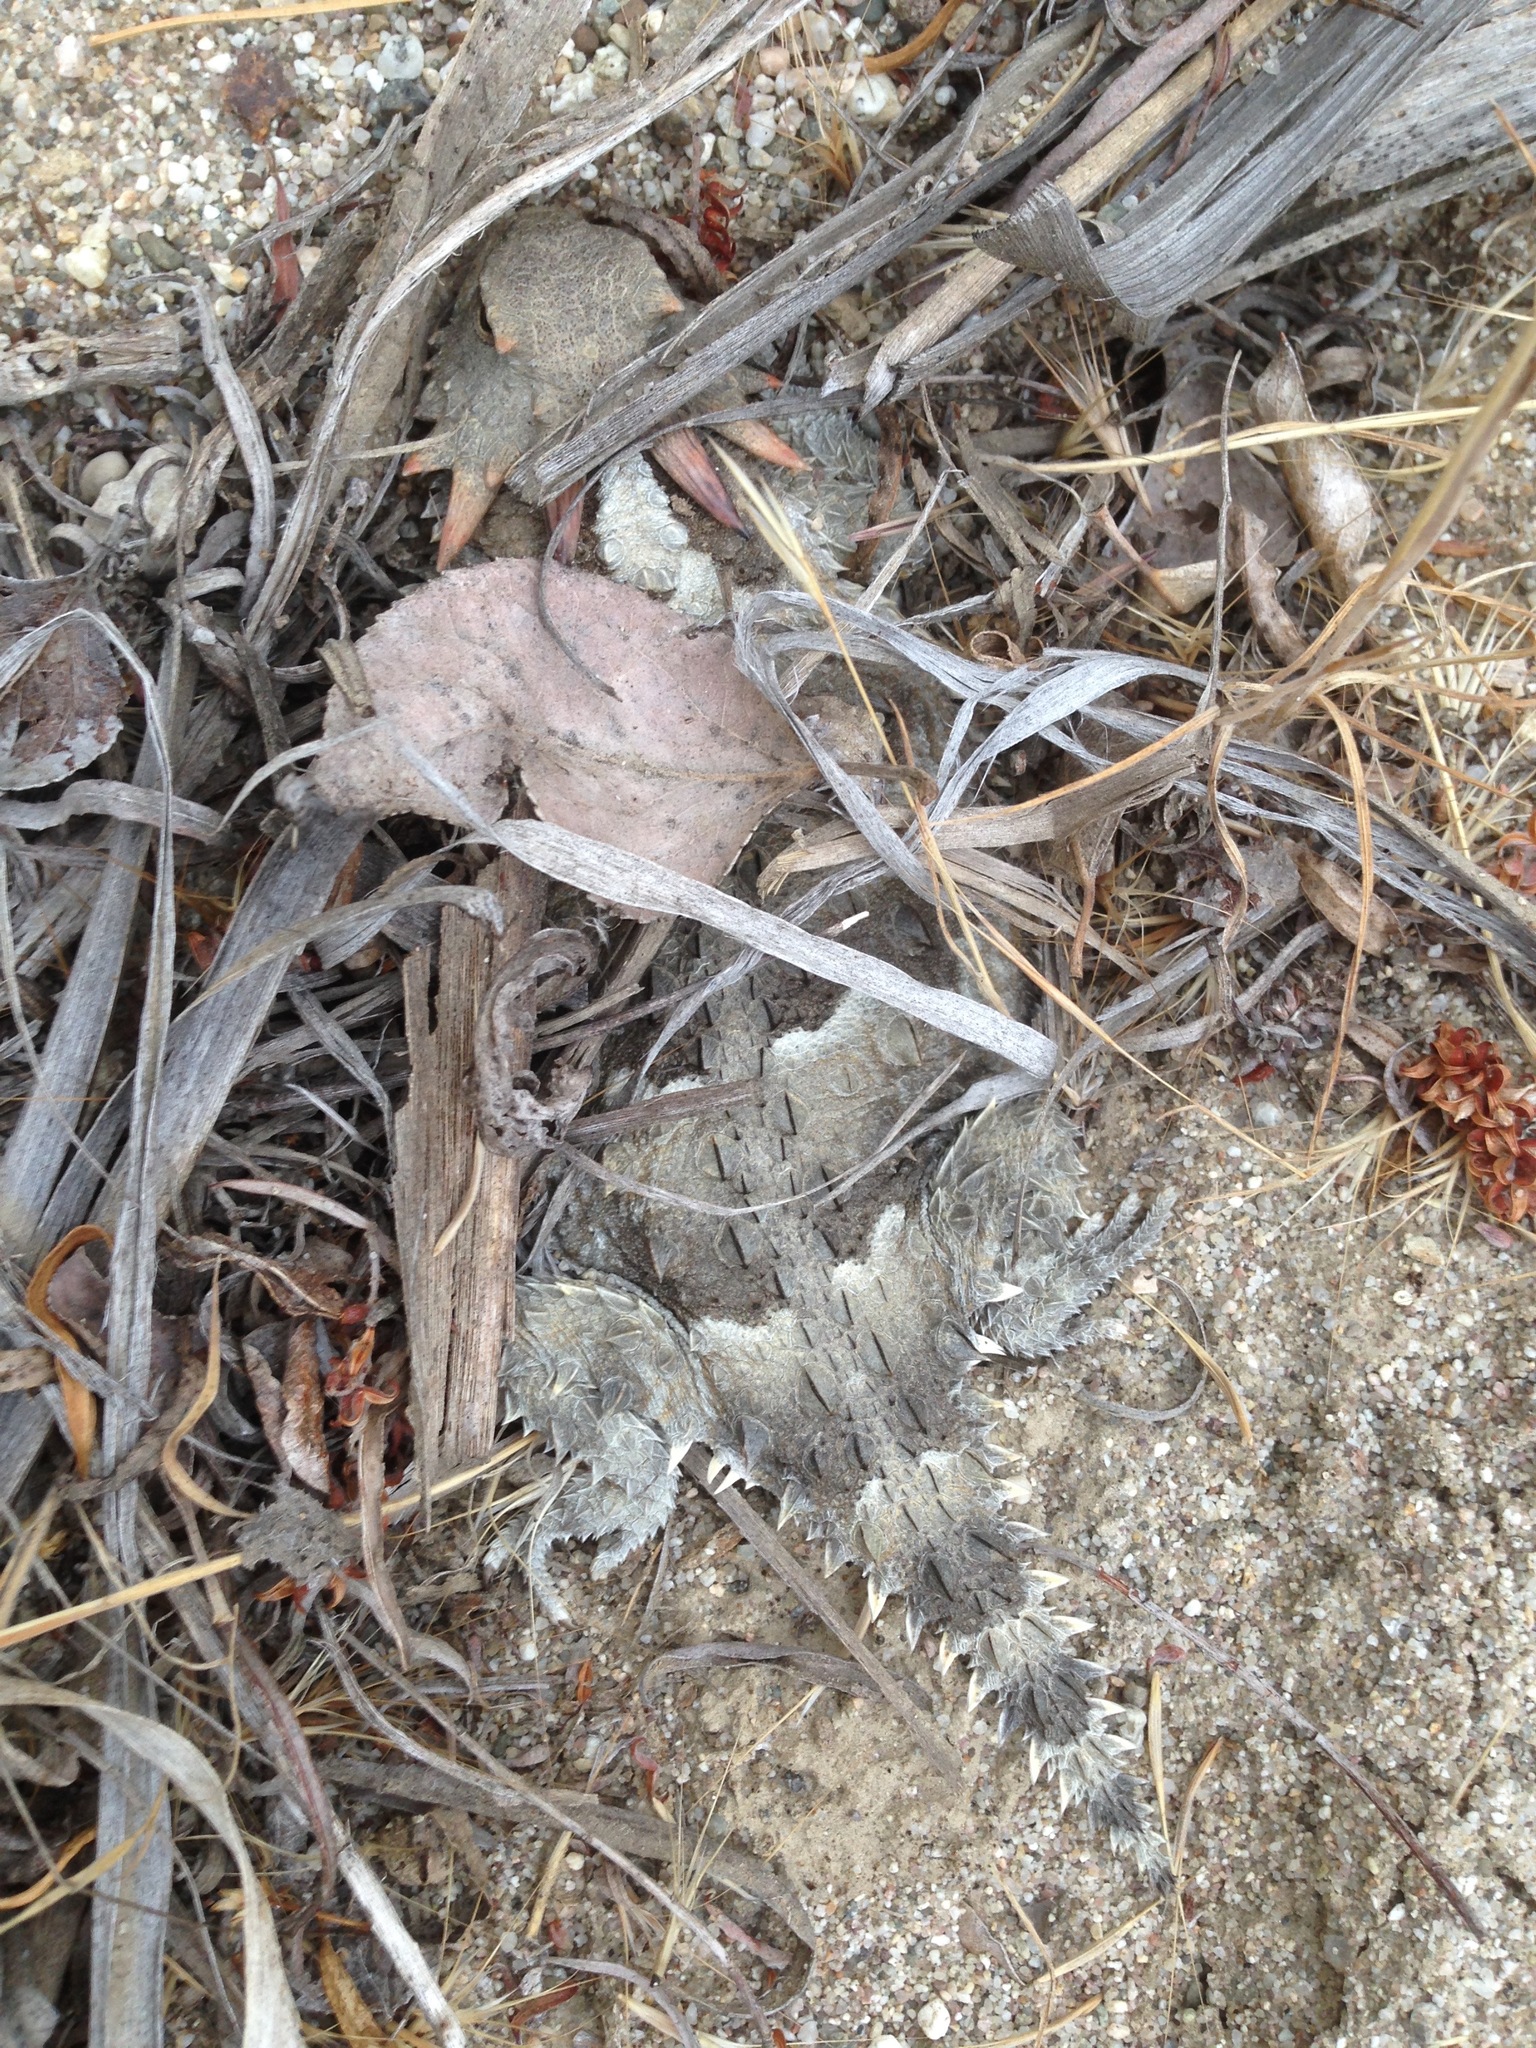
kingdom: Animalia
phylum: Chordata
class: Squamata
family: Phrynosomatidae
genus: Phrynosoma
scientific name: Phrynosoma blainvillii
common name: San diego horned lizard
